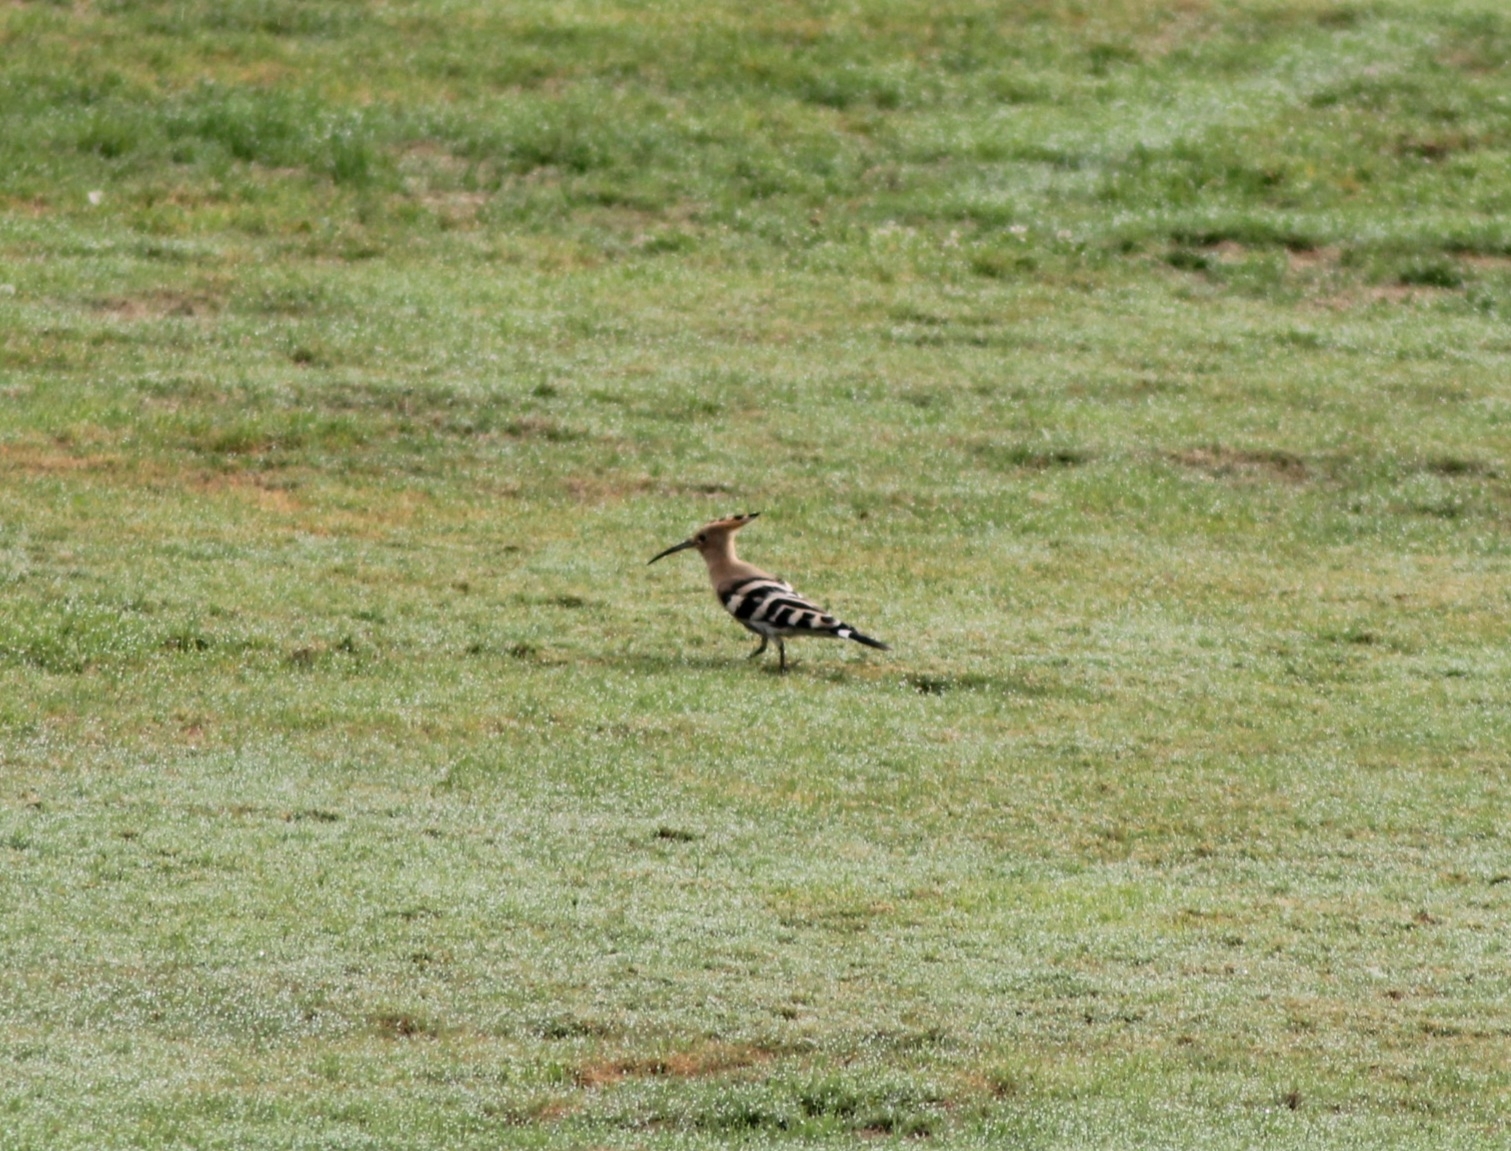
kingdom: Animalia
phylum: Chordata
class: Aves
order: Bucerotiformes
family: Upupidae
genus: Upupa
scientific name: Upupa epops
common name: Eurasian hoopoe
